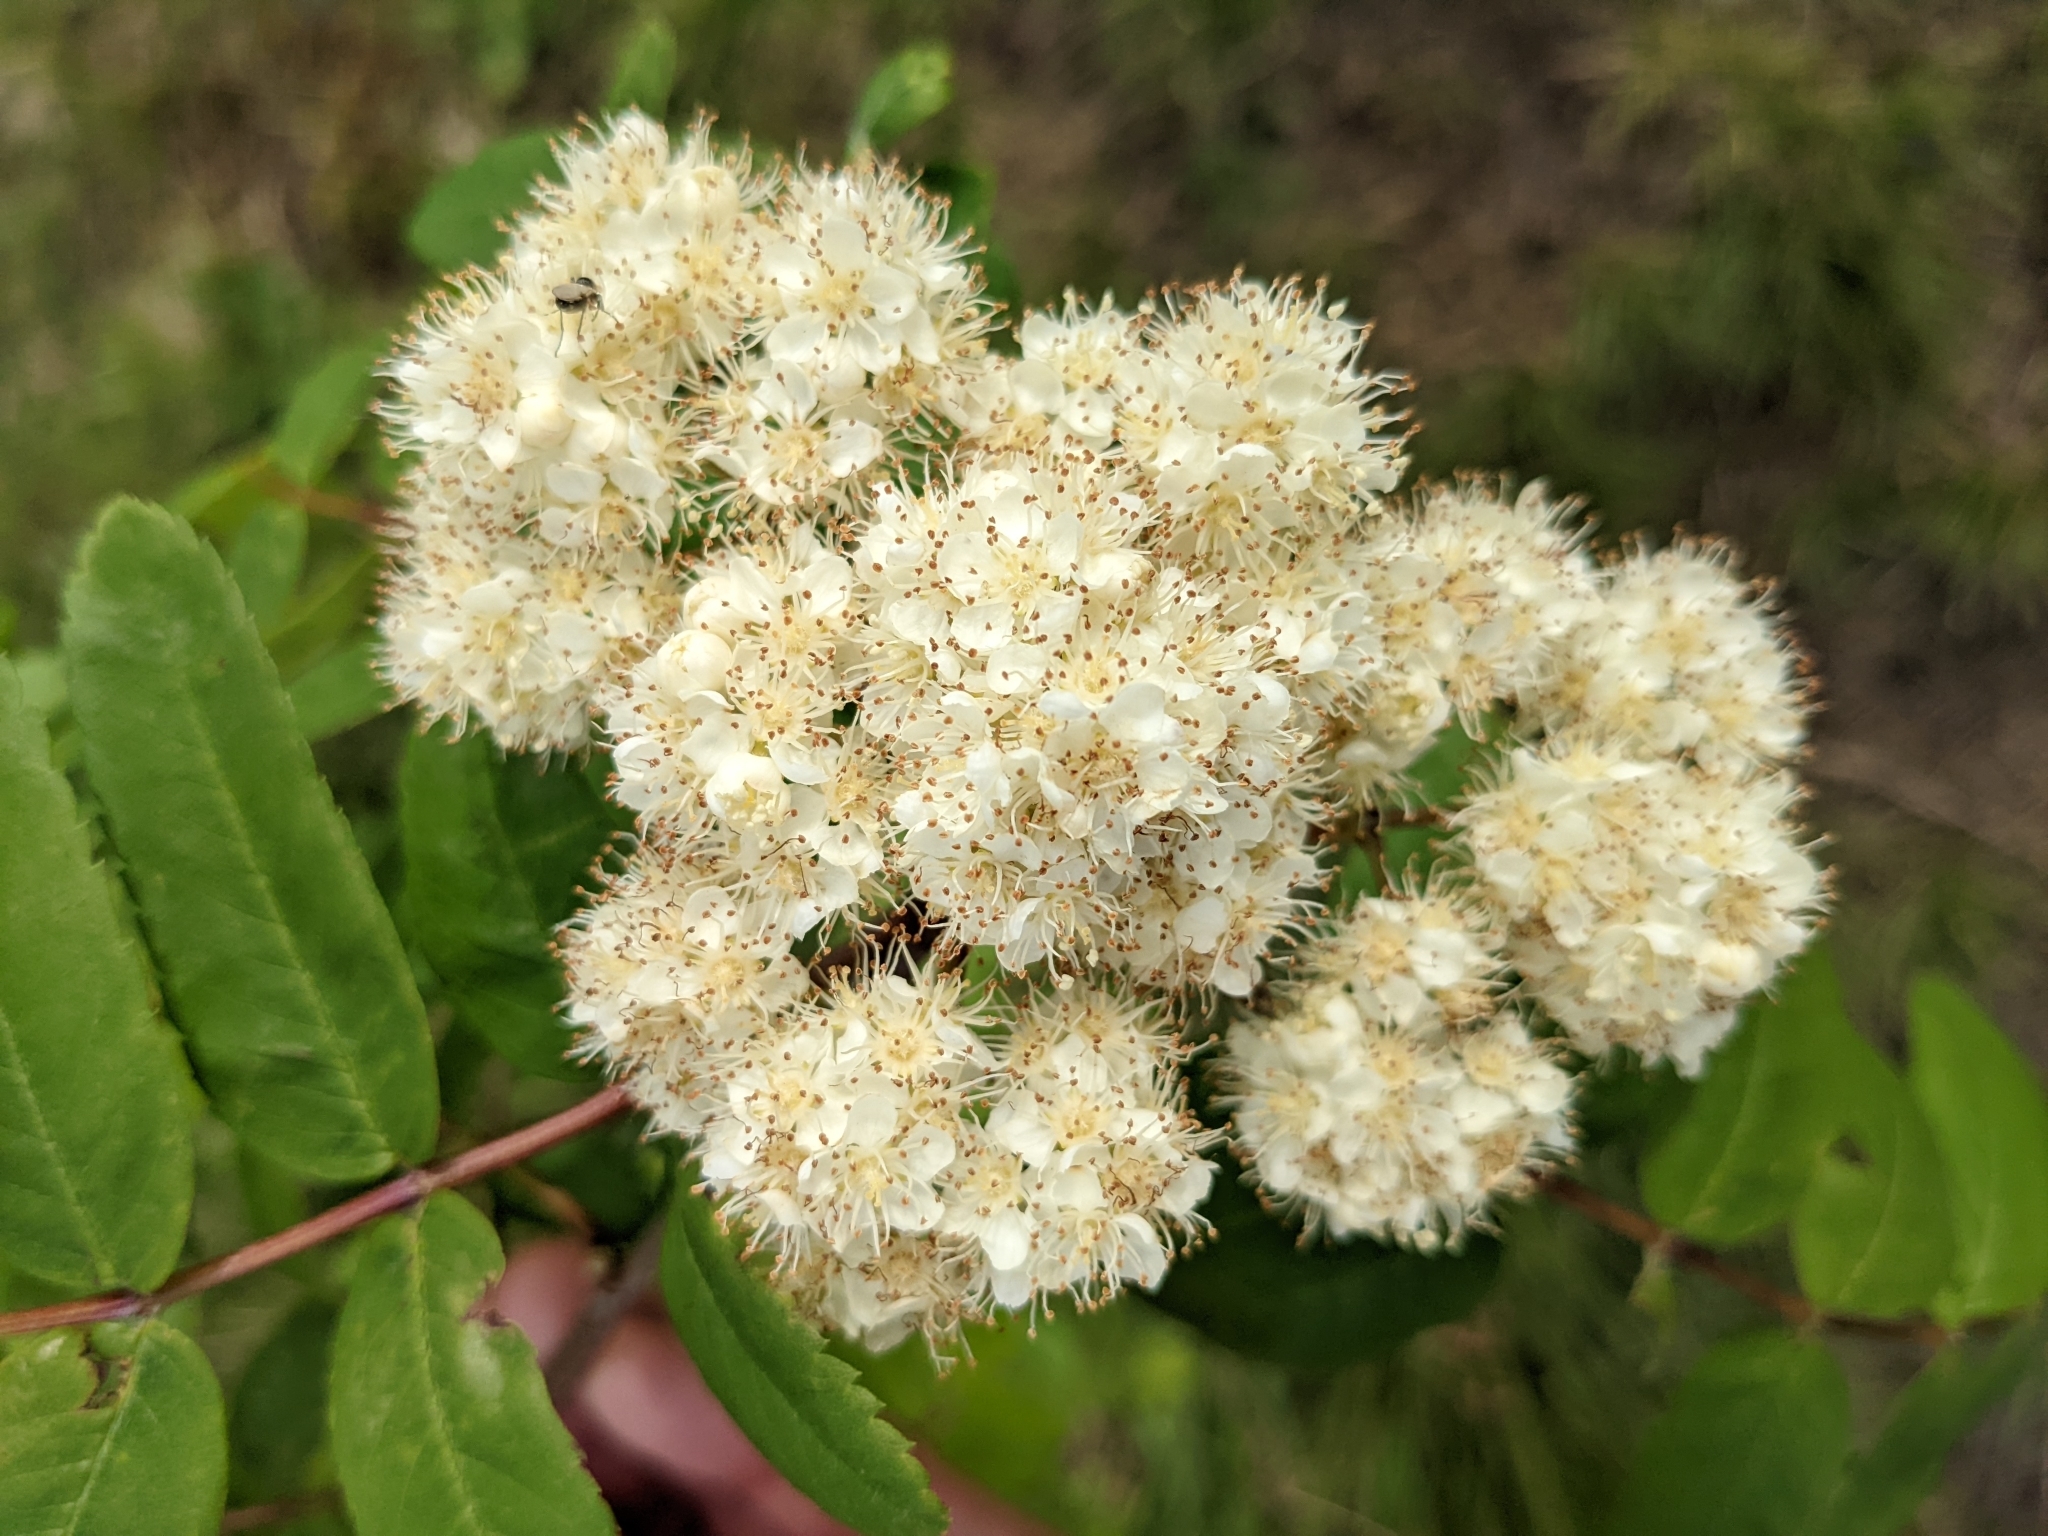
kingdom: Plantae
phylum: Tracheophyta
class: Magnoliopsida
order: Rosales
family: Rosaceae
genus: Sorbus
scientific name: Sorbus aucuparia
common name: Rowan
